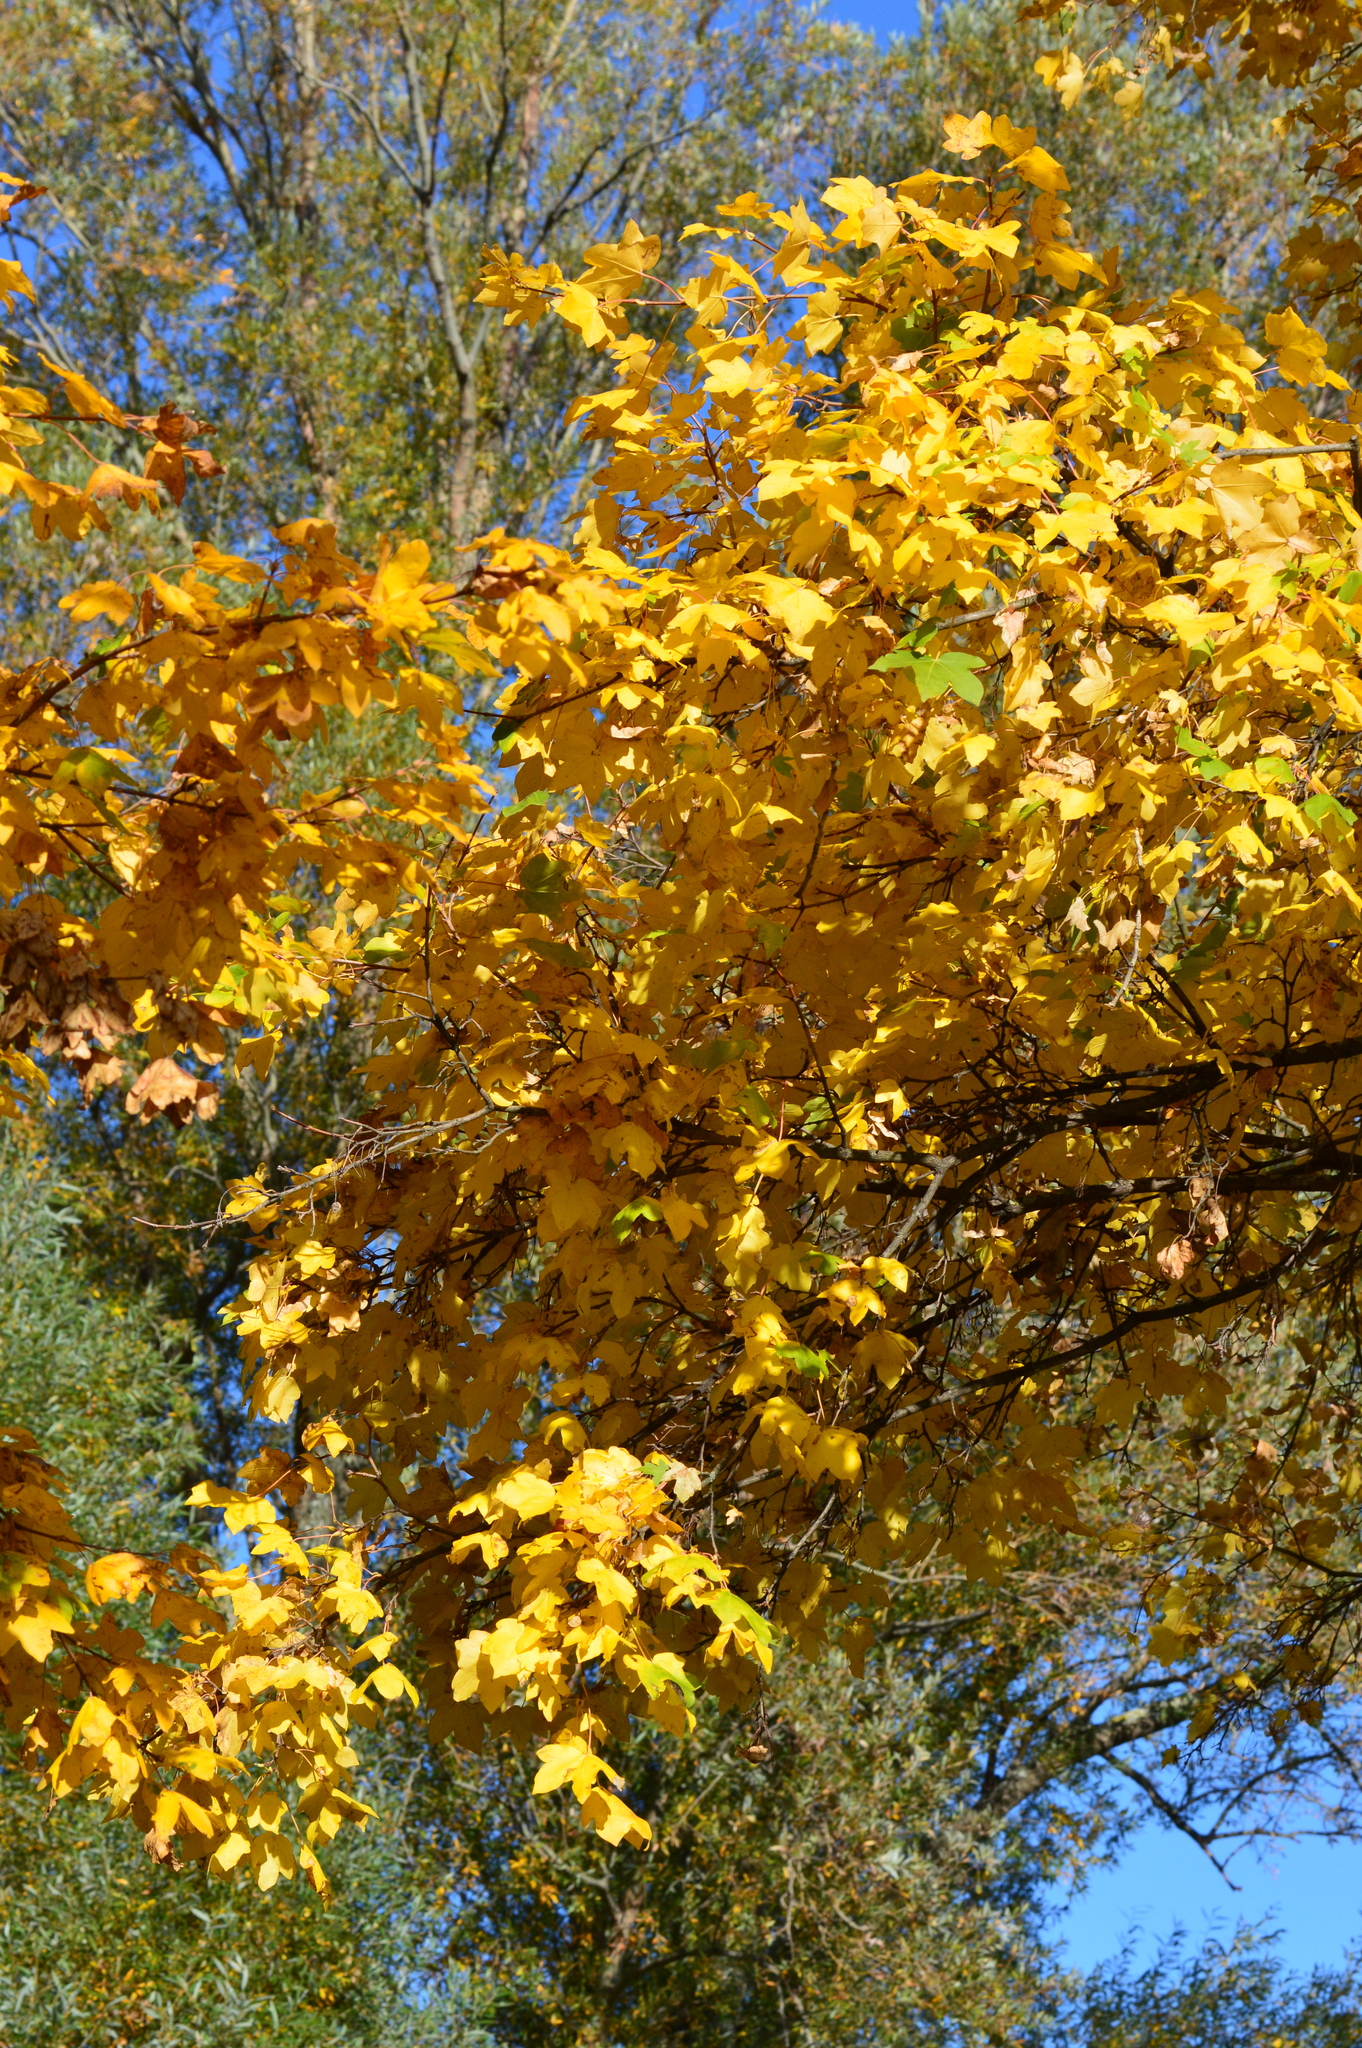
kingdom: Plantae
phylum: Tracheophyta
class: Magnoliopsida
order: Sapindales
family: Sapindaceae
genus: Acer
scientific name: Acer pseudoplatanus
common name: Sycamore
